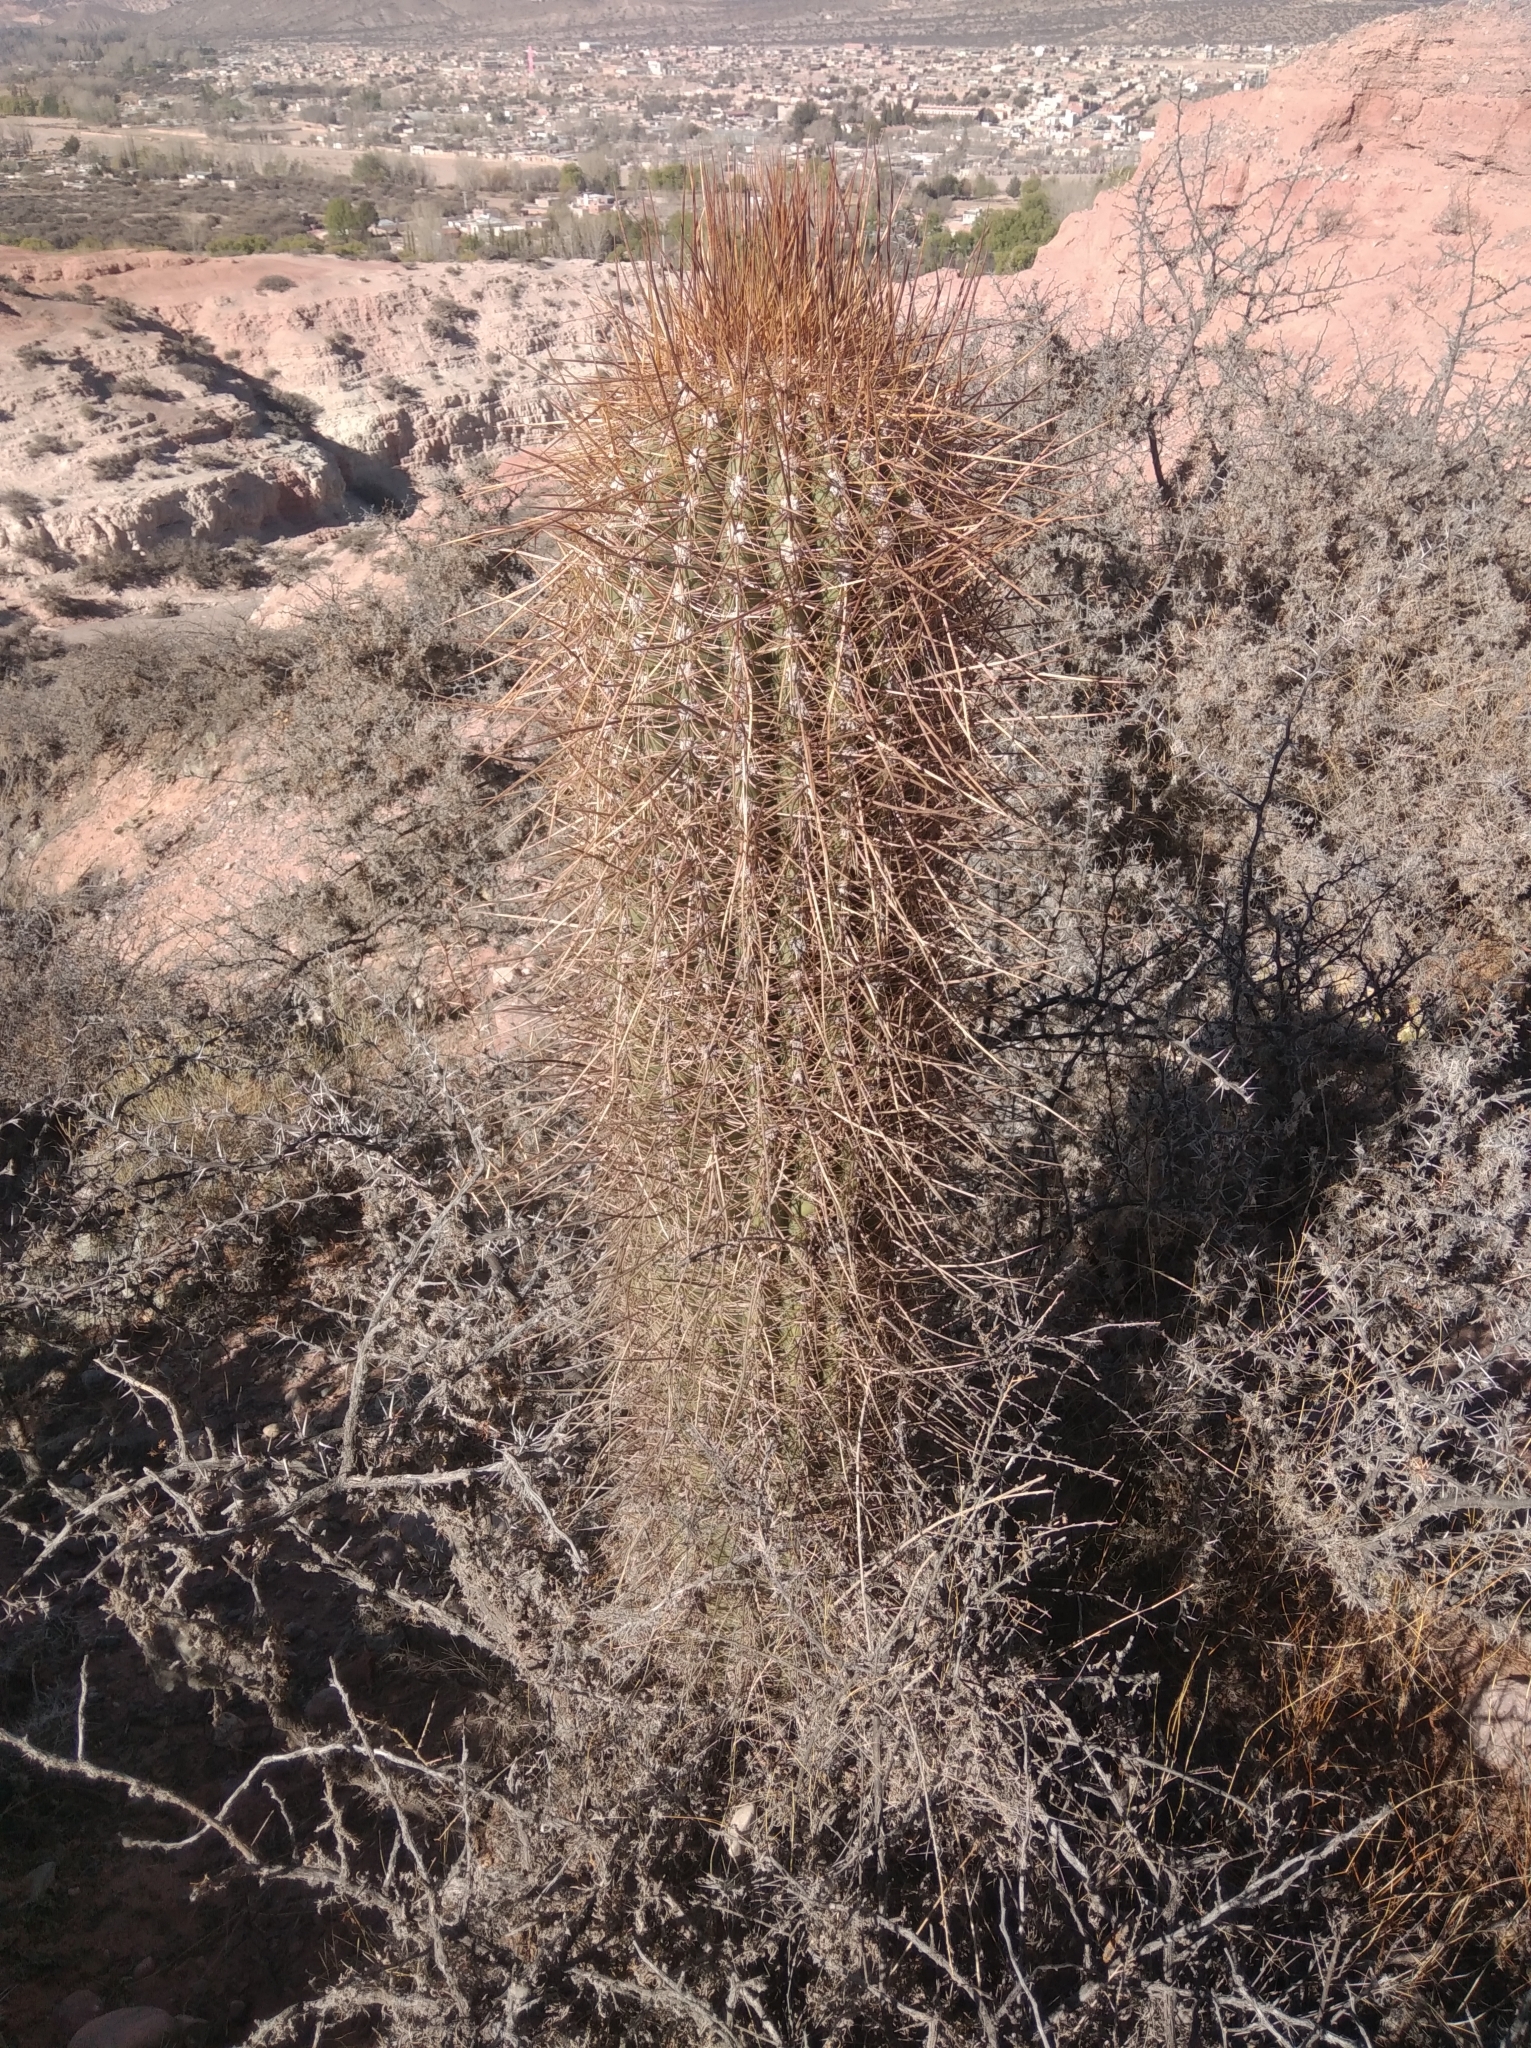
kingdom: Plantae
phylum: Tracheophyta
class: Magnoliopsida
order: Caryophyllales
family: Cactaceae
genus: Leucostele
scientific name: Leucostele atacamensis
